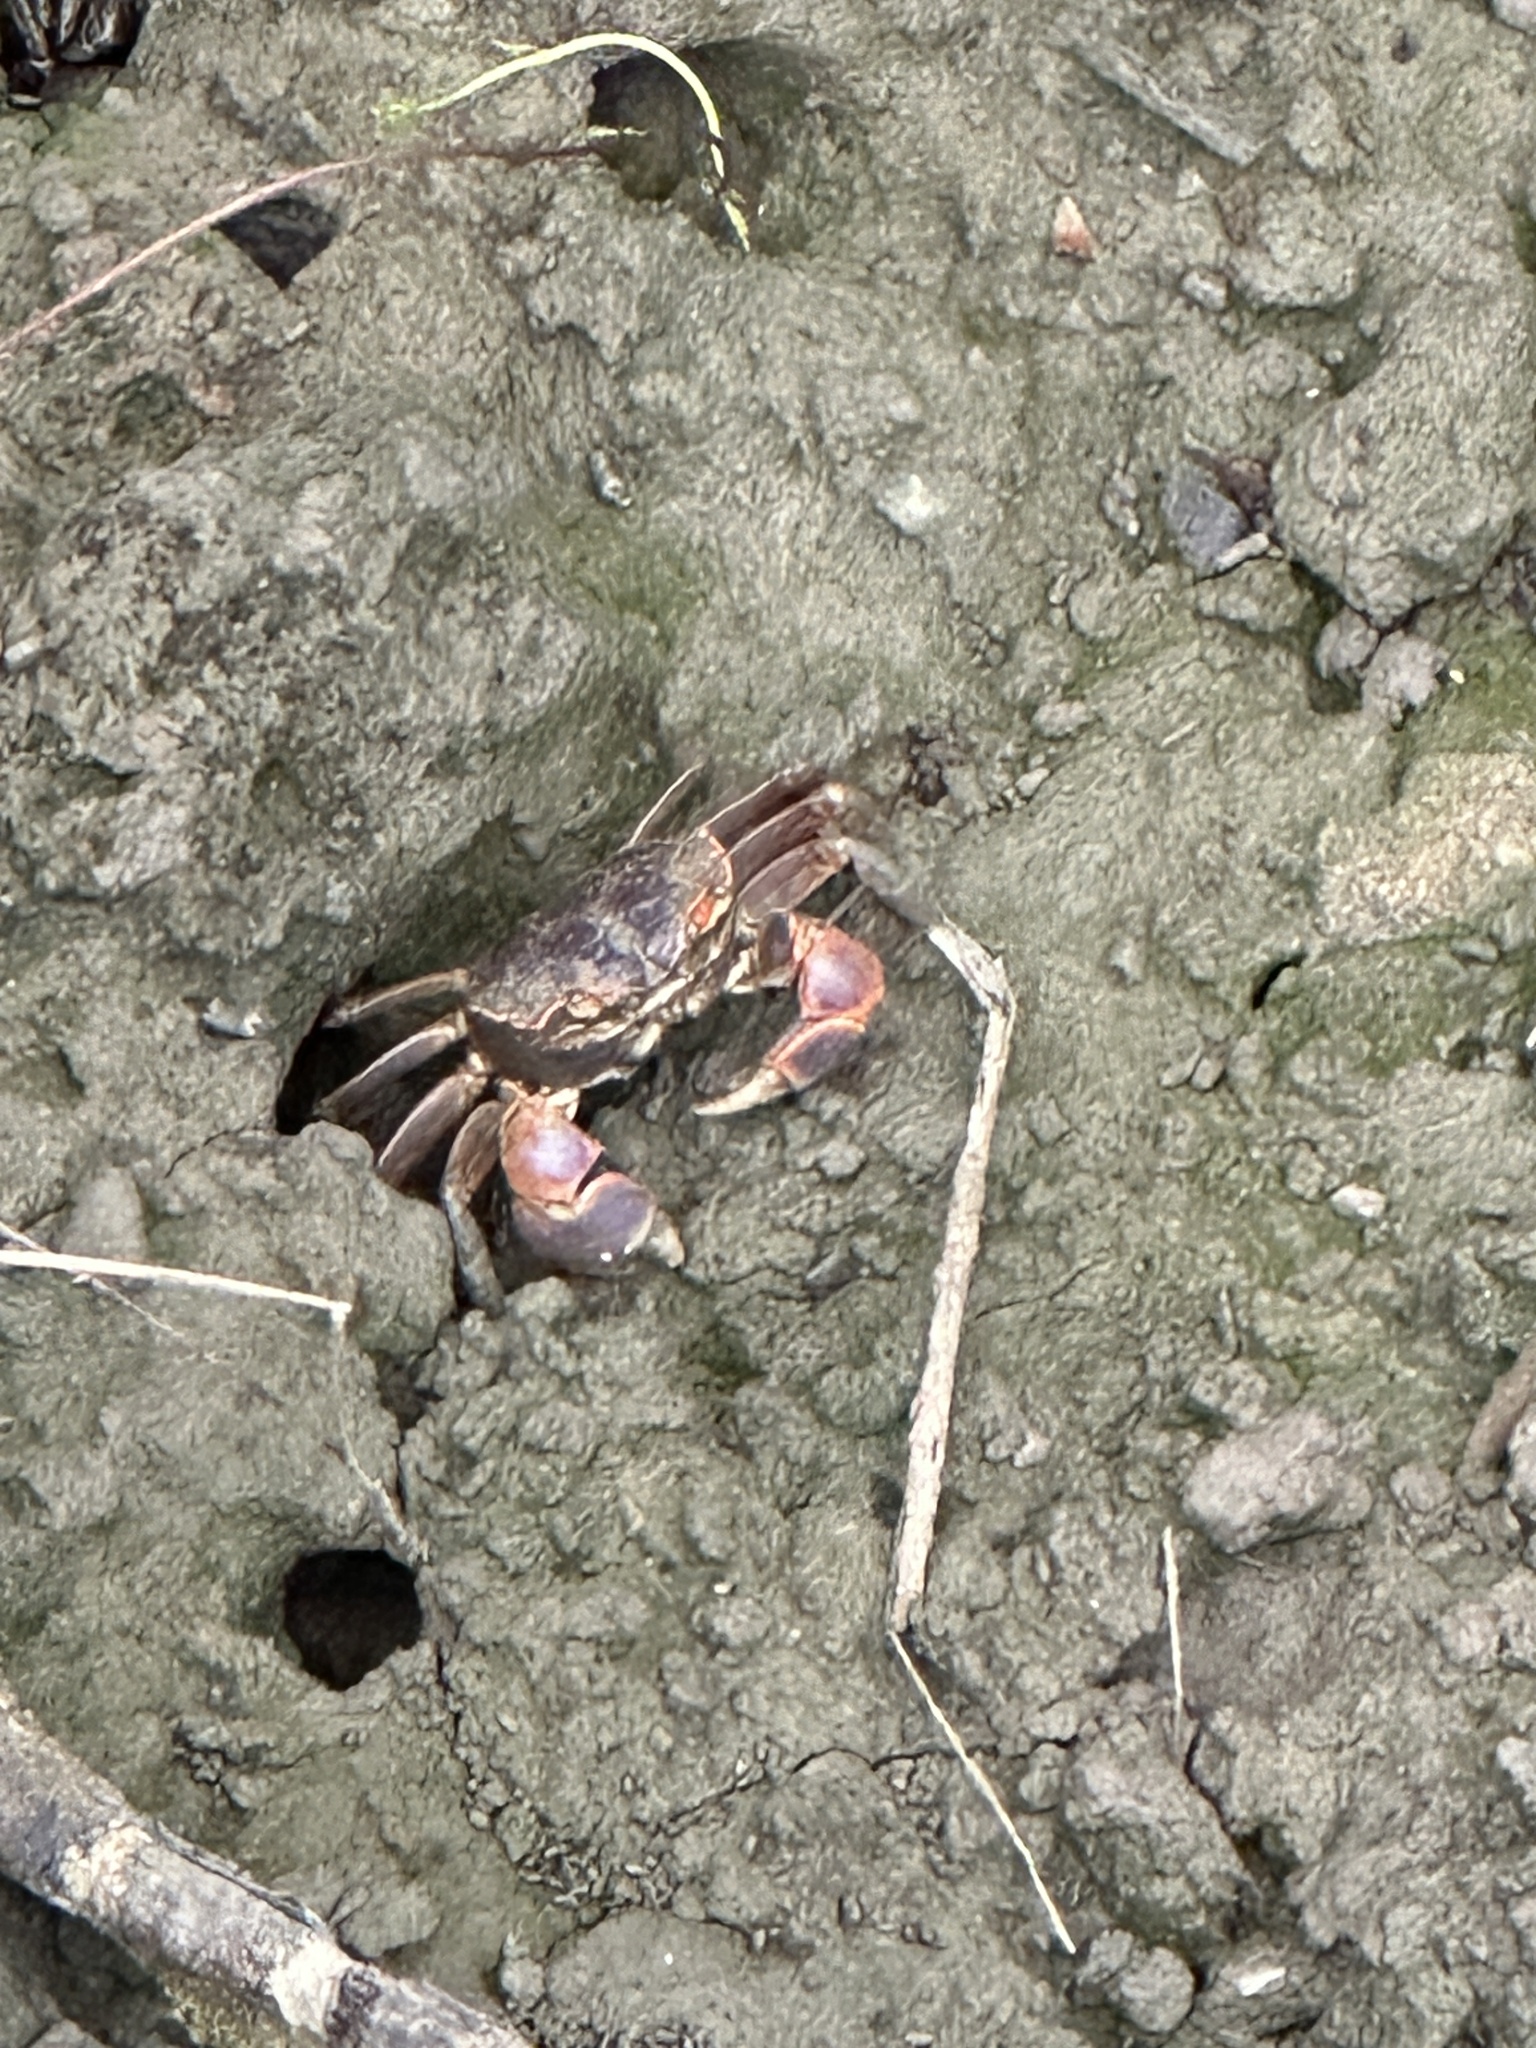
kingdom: Animalia
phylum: Arthropoda
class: Malacostraca
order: Decapoda
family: Varunidae
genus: Chasmagnathus
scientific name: Chasmagnathus convexus
